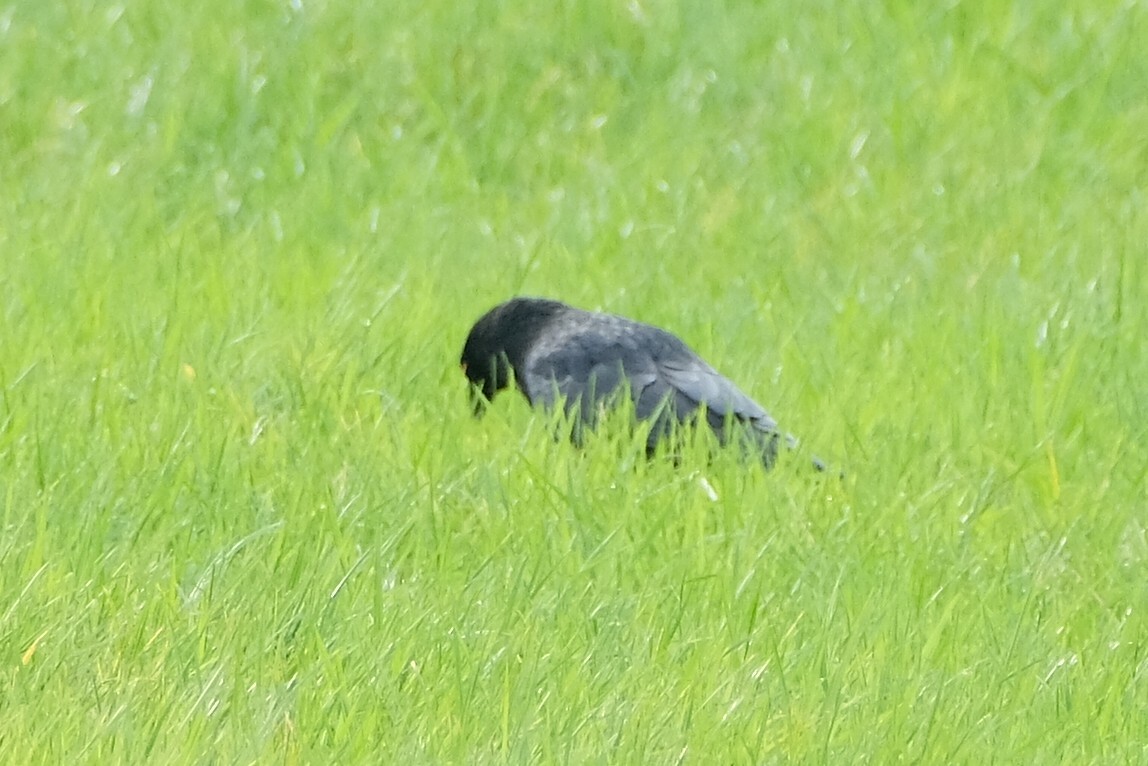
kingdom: Animalia
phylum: Chordata
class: Aves
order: Passeriformes
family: Corvidae
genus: Corvus
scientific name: Corvus corone
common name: Carrion crow
